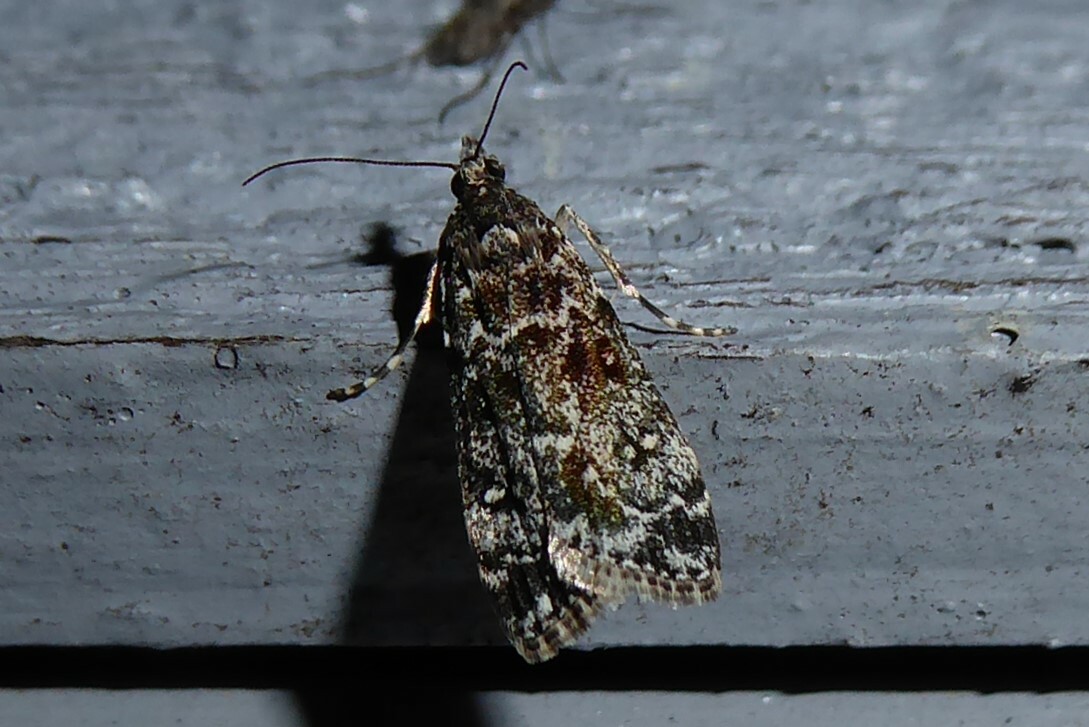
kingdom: Animalia
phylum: Arthropoda
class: Insecta
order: Lepidoptera
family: Crambidae
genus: Eudonia
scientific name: Eudonia philerga
